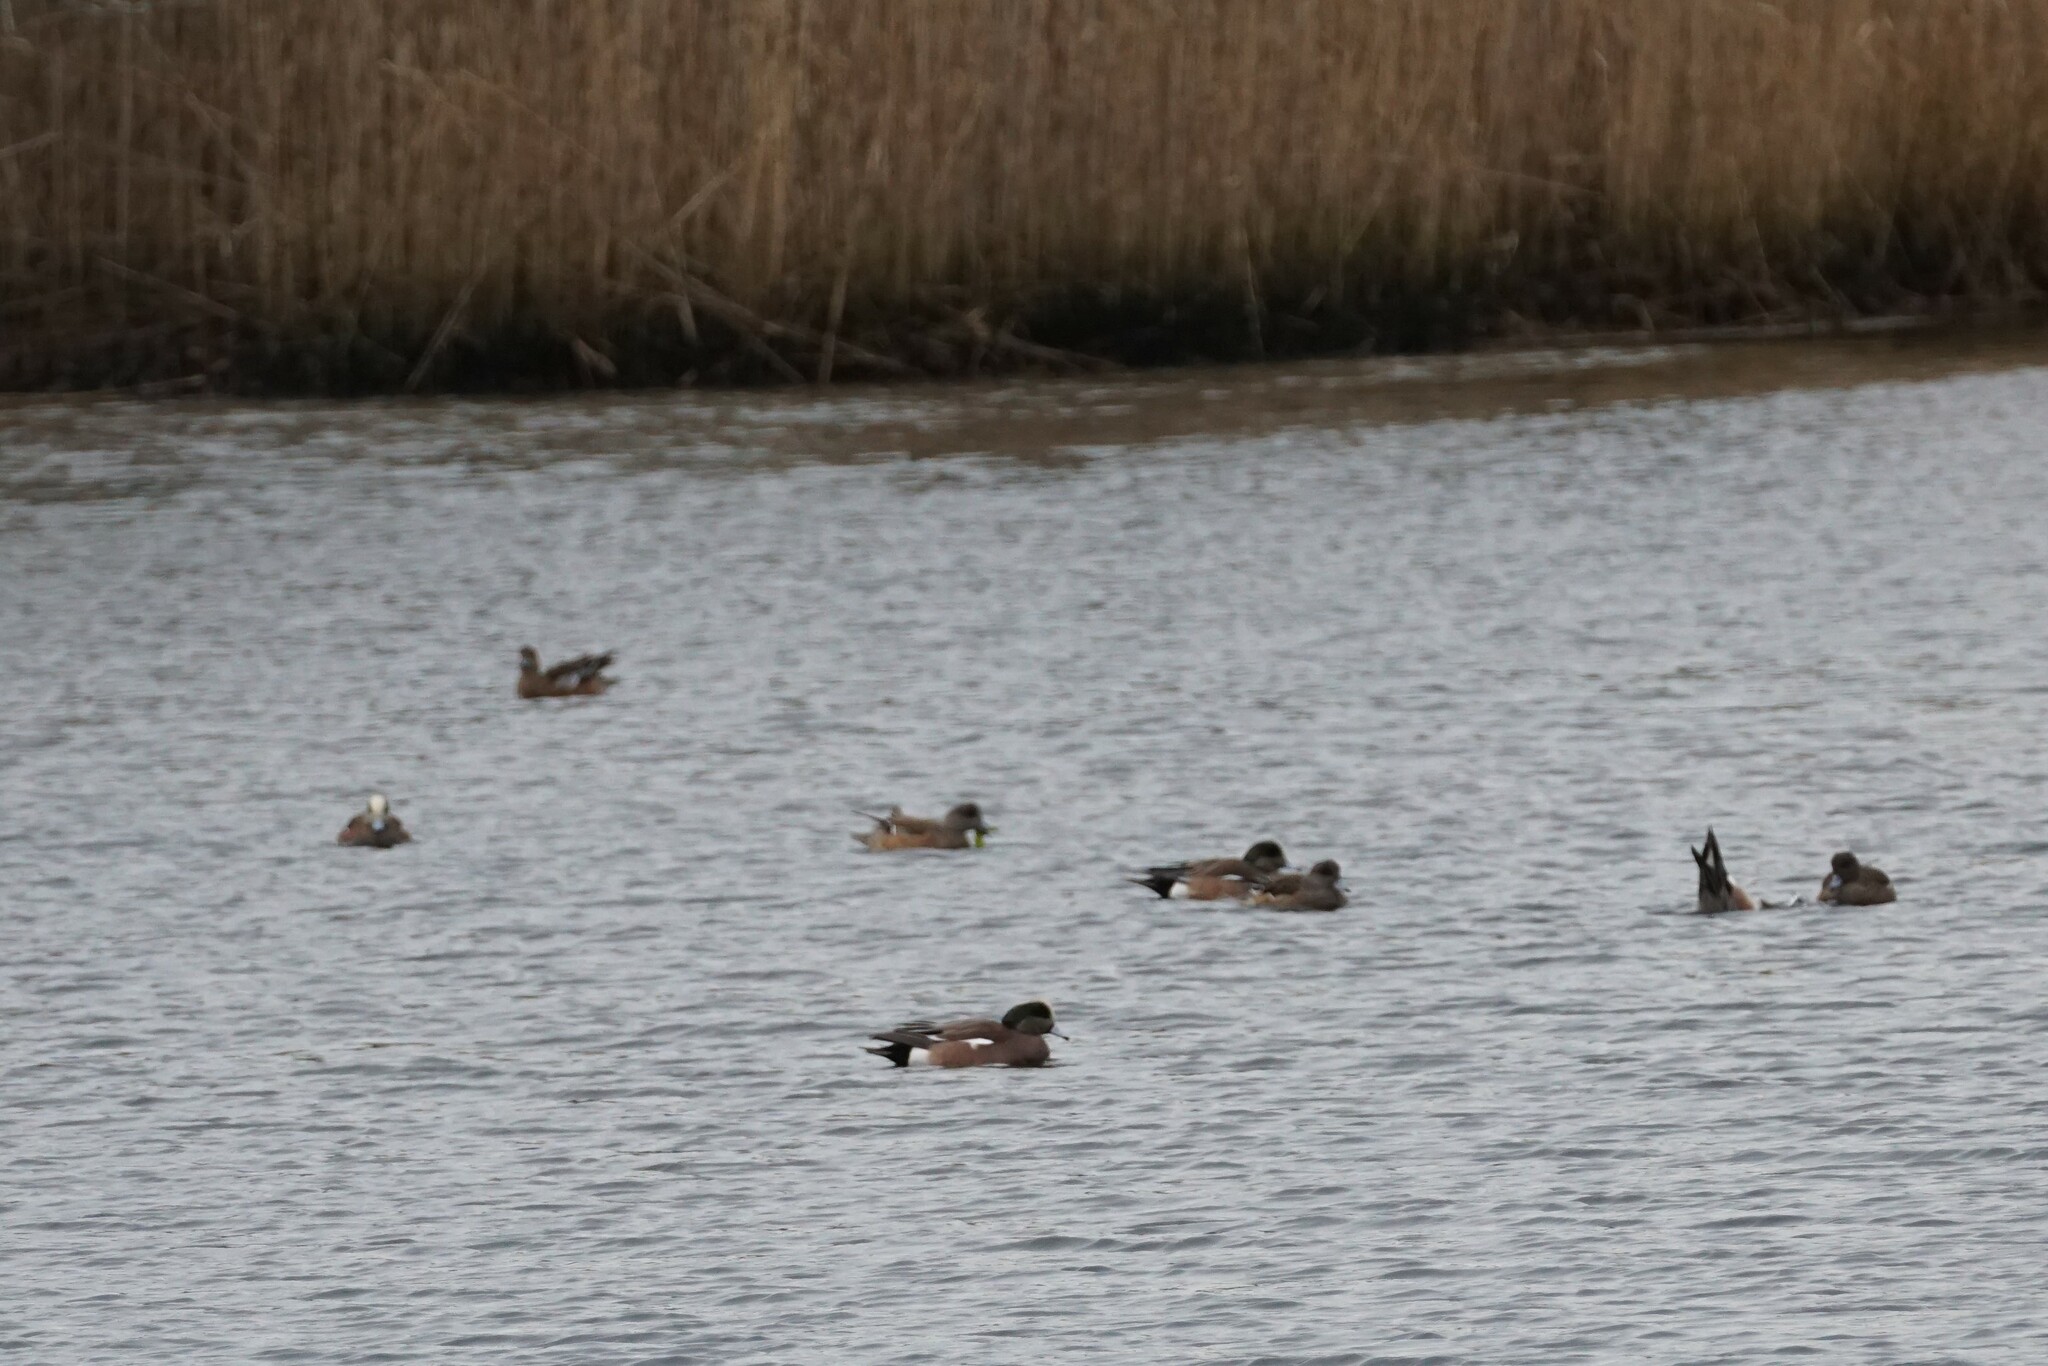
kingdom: Animalia
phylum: Chordata
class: Aves
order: Anseriformes
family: Anatidae
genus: Mareca
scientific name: Mareca americana
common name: American wigeon
